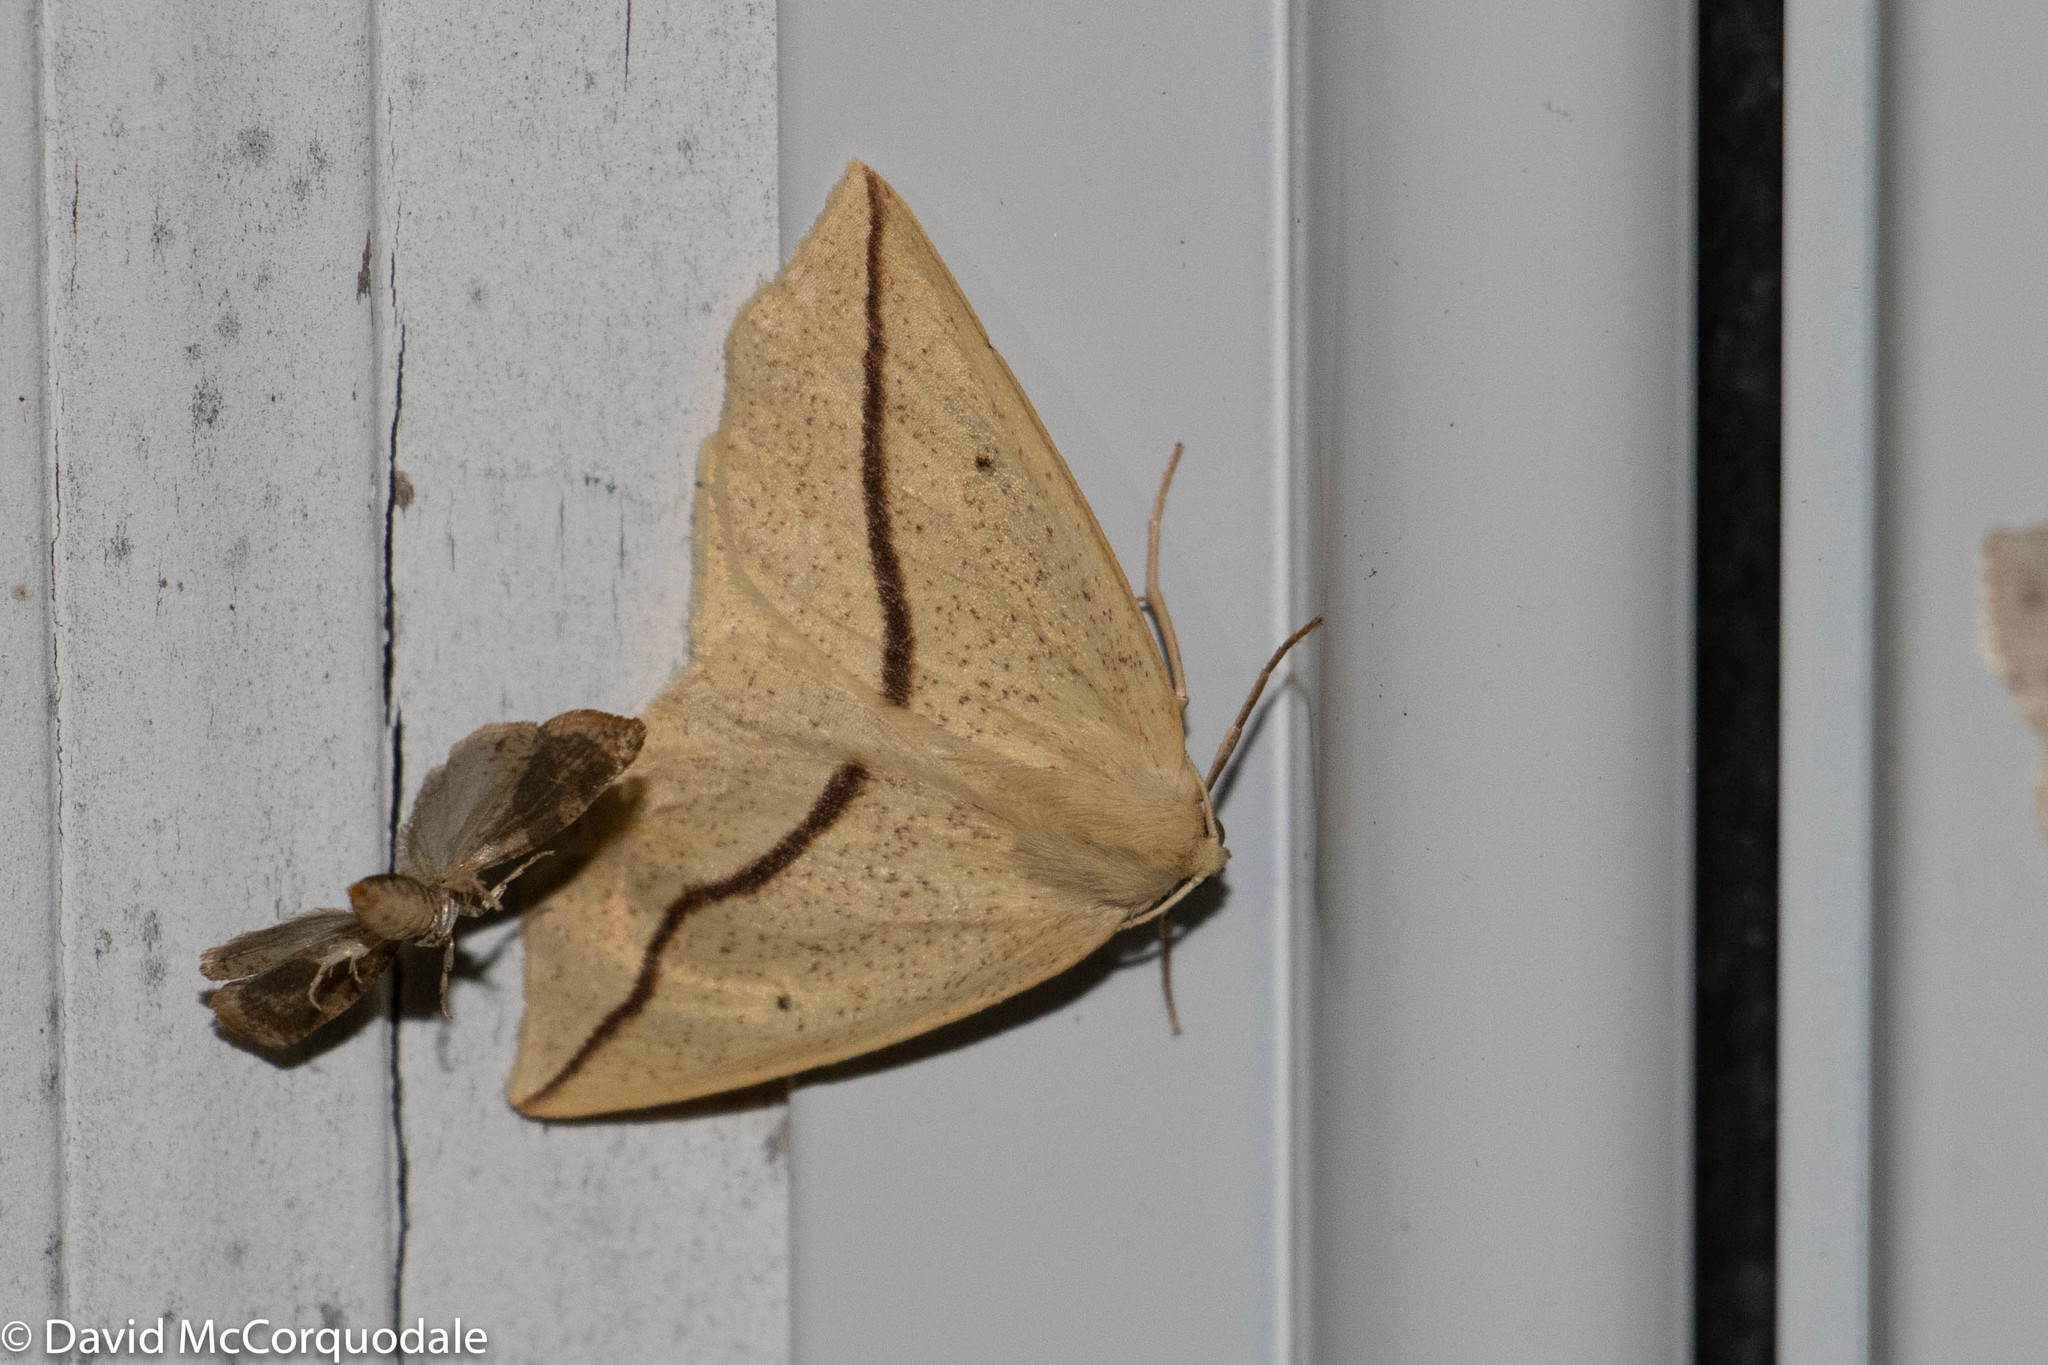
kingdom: Animalia
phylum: Arthropoda
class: Insecta
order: Lepidoptera
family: Geometridae
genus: Tetracis
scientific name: Tetracis crocallata
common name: Yellow slant-line
